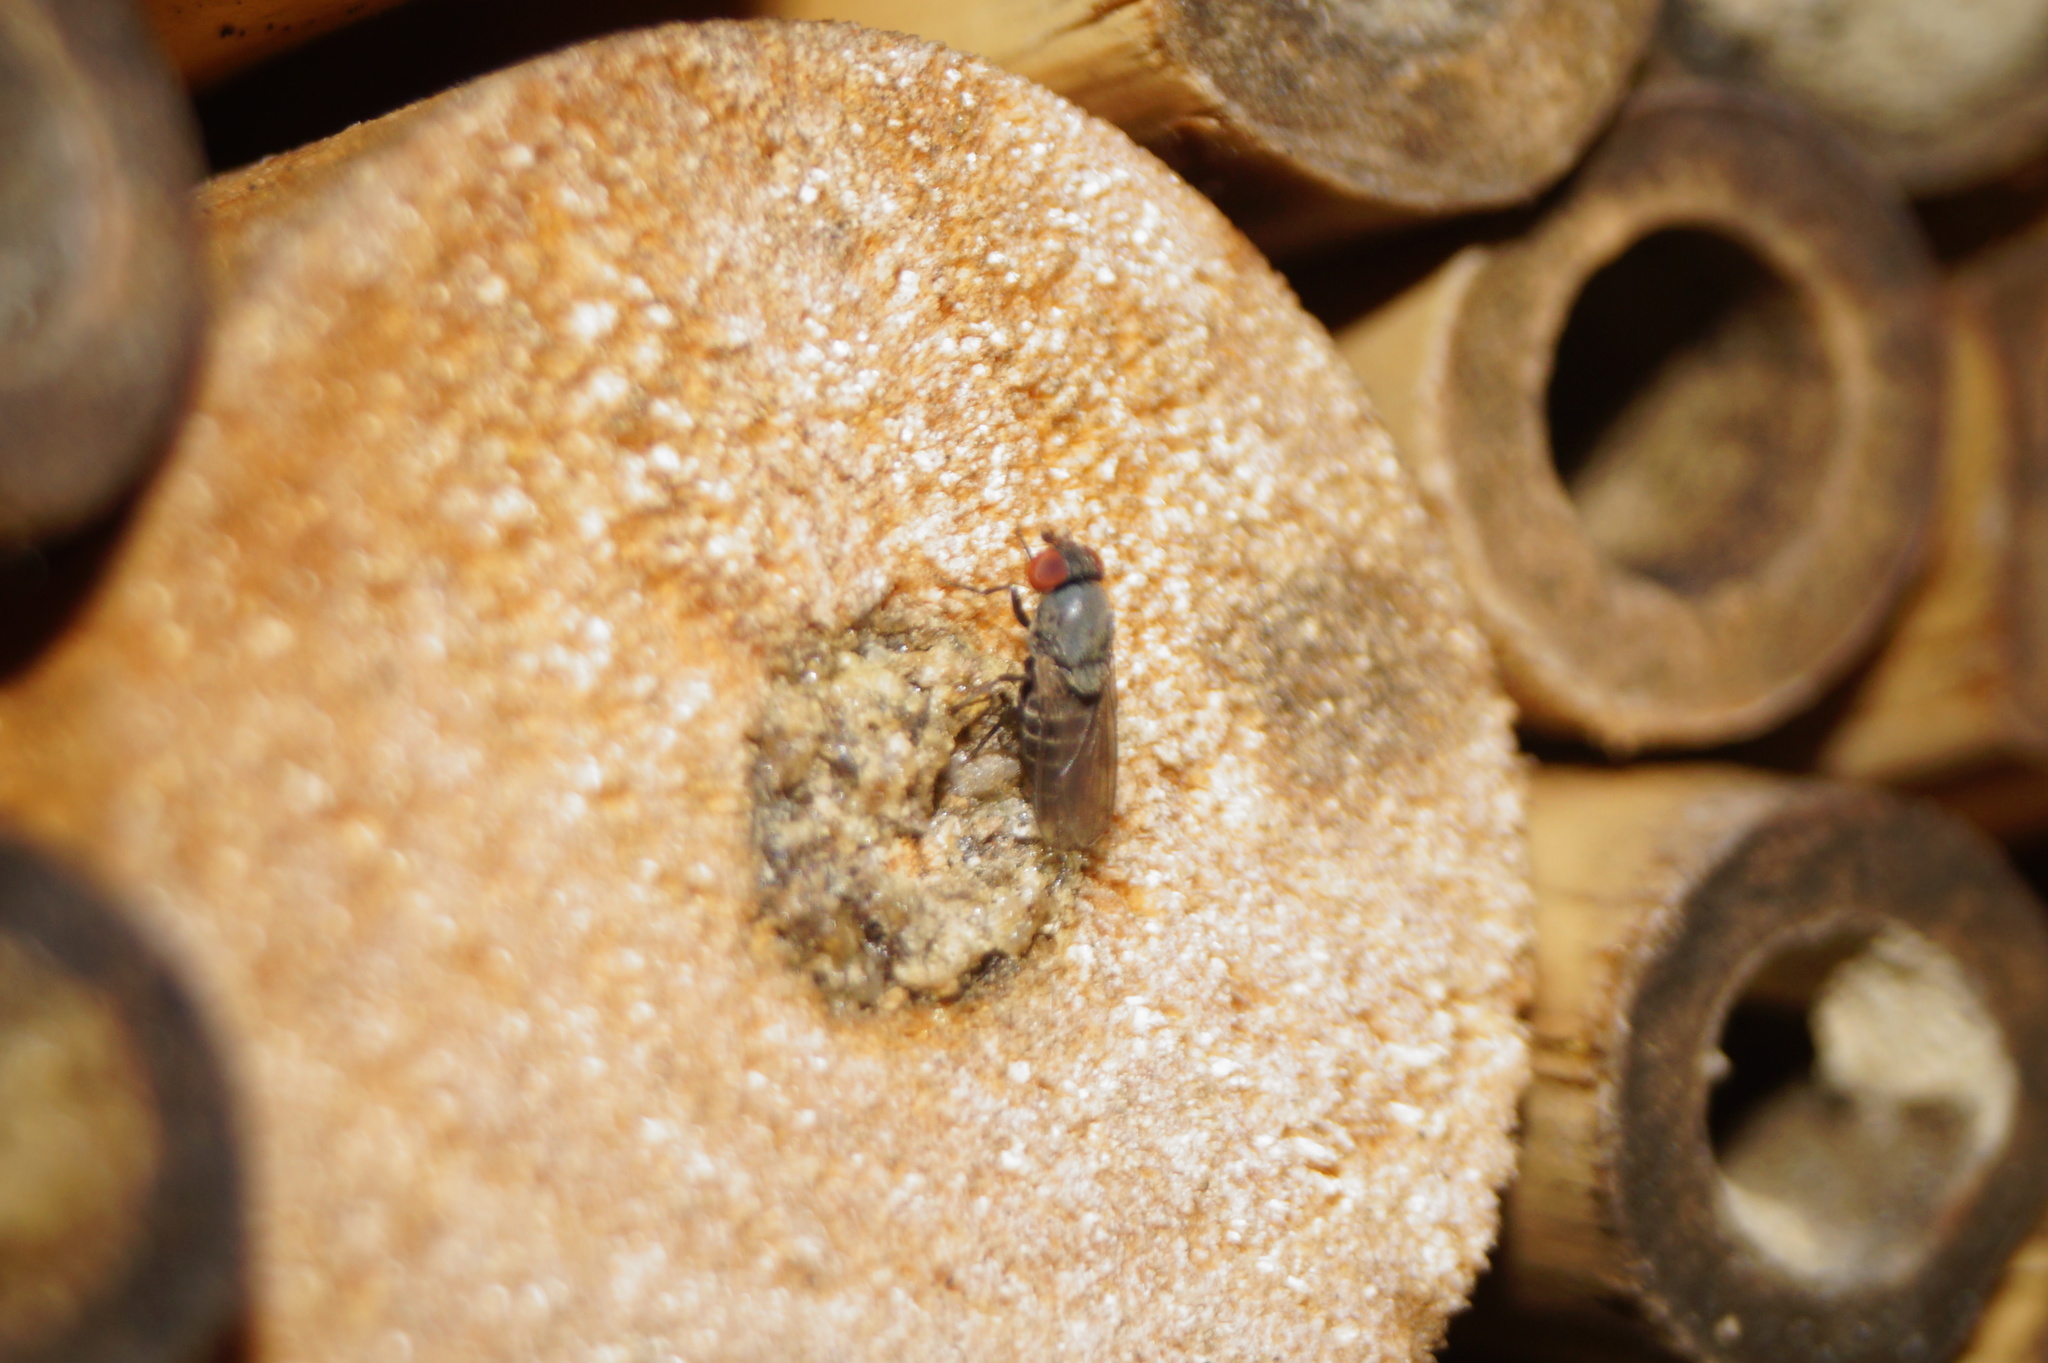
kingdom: Animalia
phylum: Arthropoda
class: Insecta
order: Diptera
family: Drosophilidae
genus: Cacoxenus
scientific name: Cacoxenus indagator
